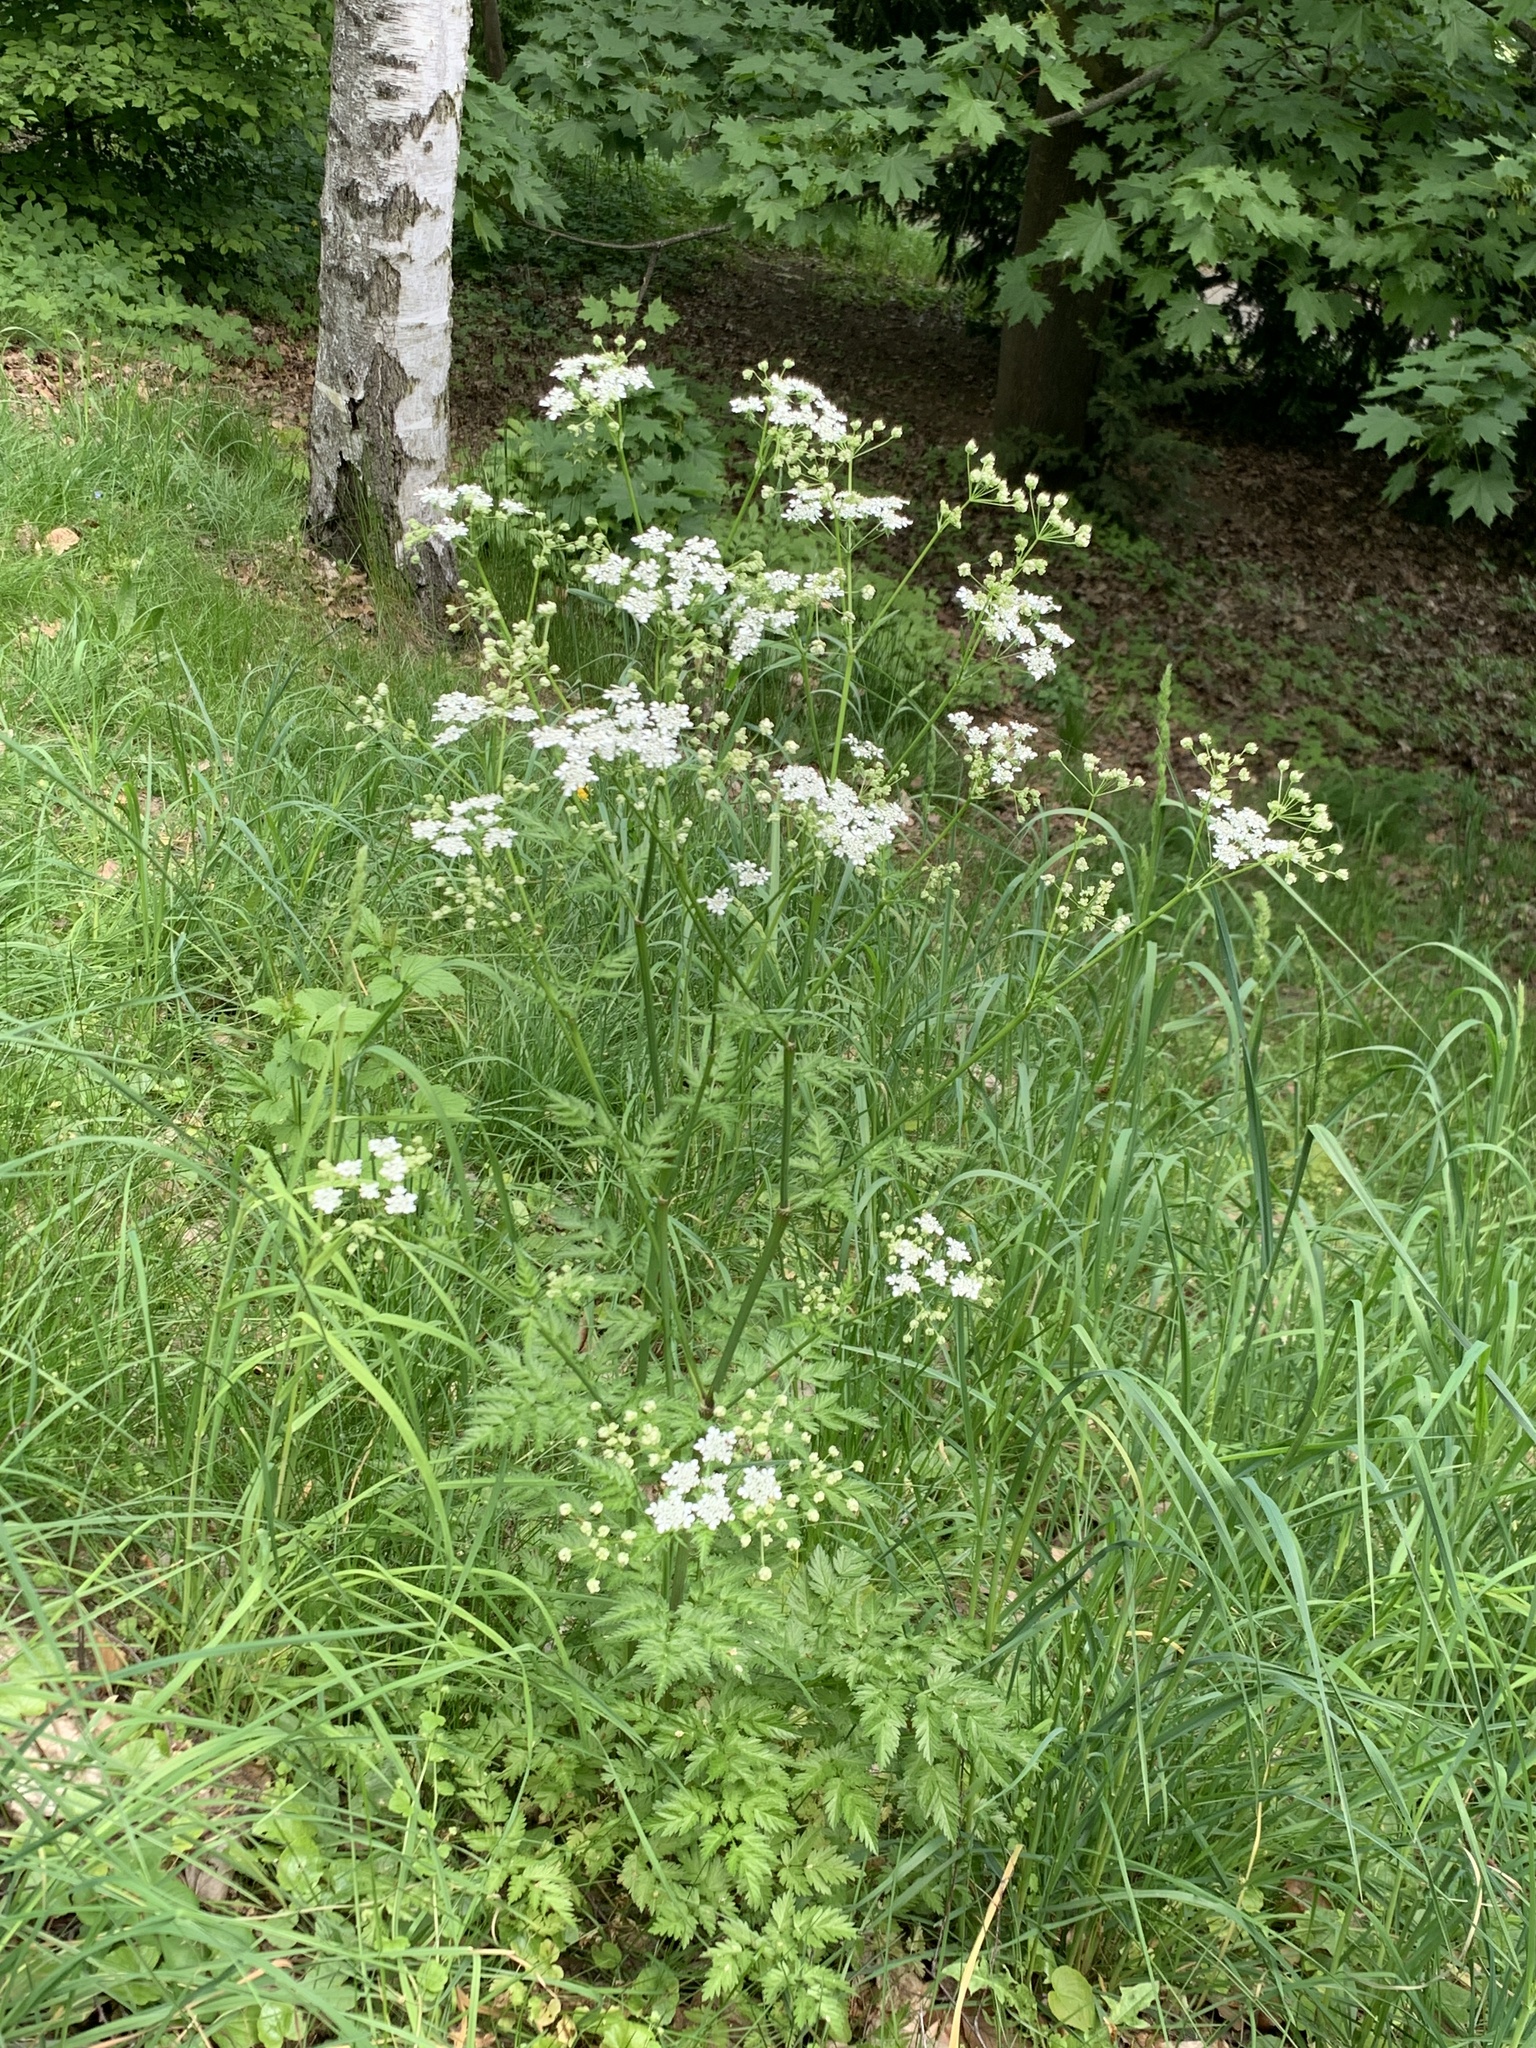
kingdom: Plantae
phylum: Tracheophyta
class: Magnoliopsida
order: Apiales
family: Apiaceae
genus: Anthriscus
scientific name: Anthriscus sylvestris
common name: Cow parsley
